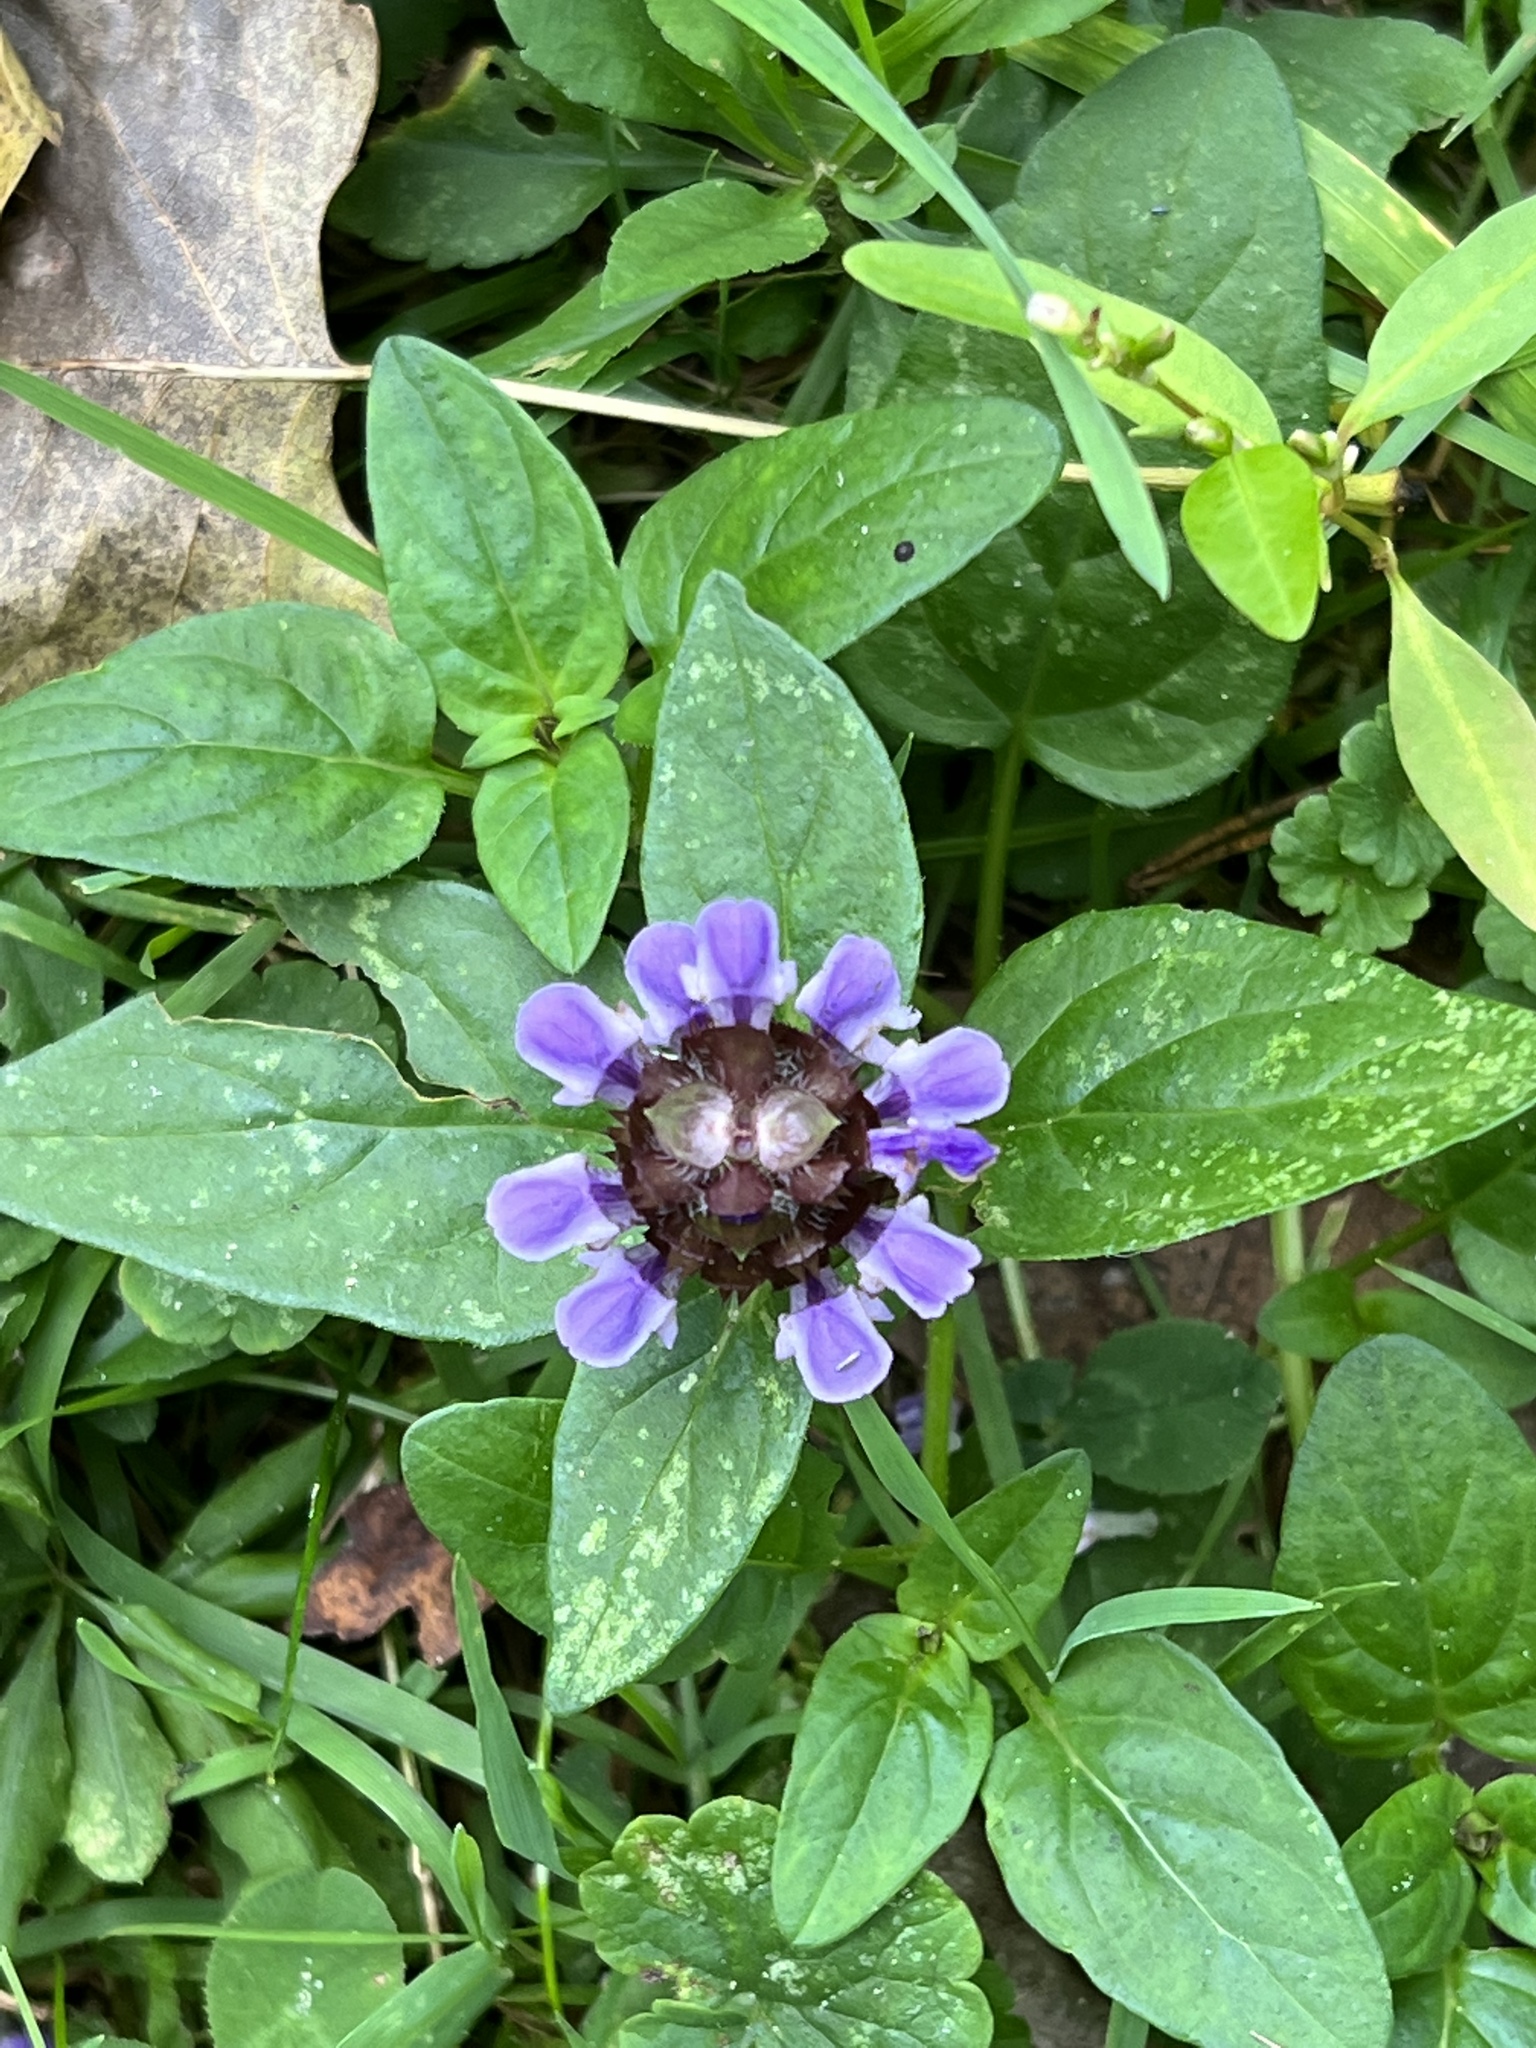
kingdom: Plantae
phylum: Tracheophyta
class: Magnoliopsida
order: Lamiales
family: Lamiaceae
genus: Prunella
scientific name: Prunella vulgaris
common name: Heal-all
